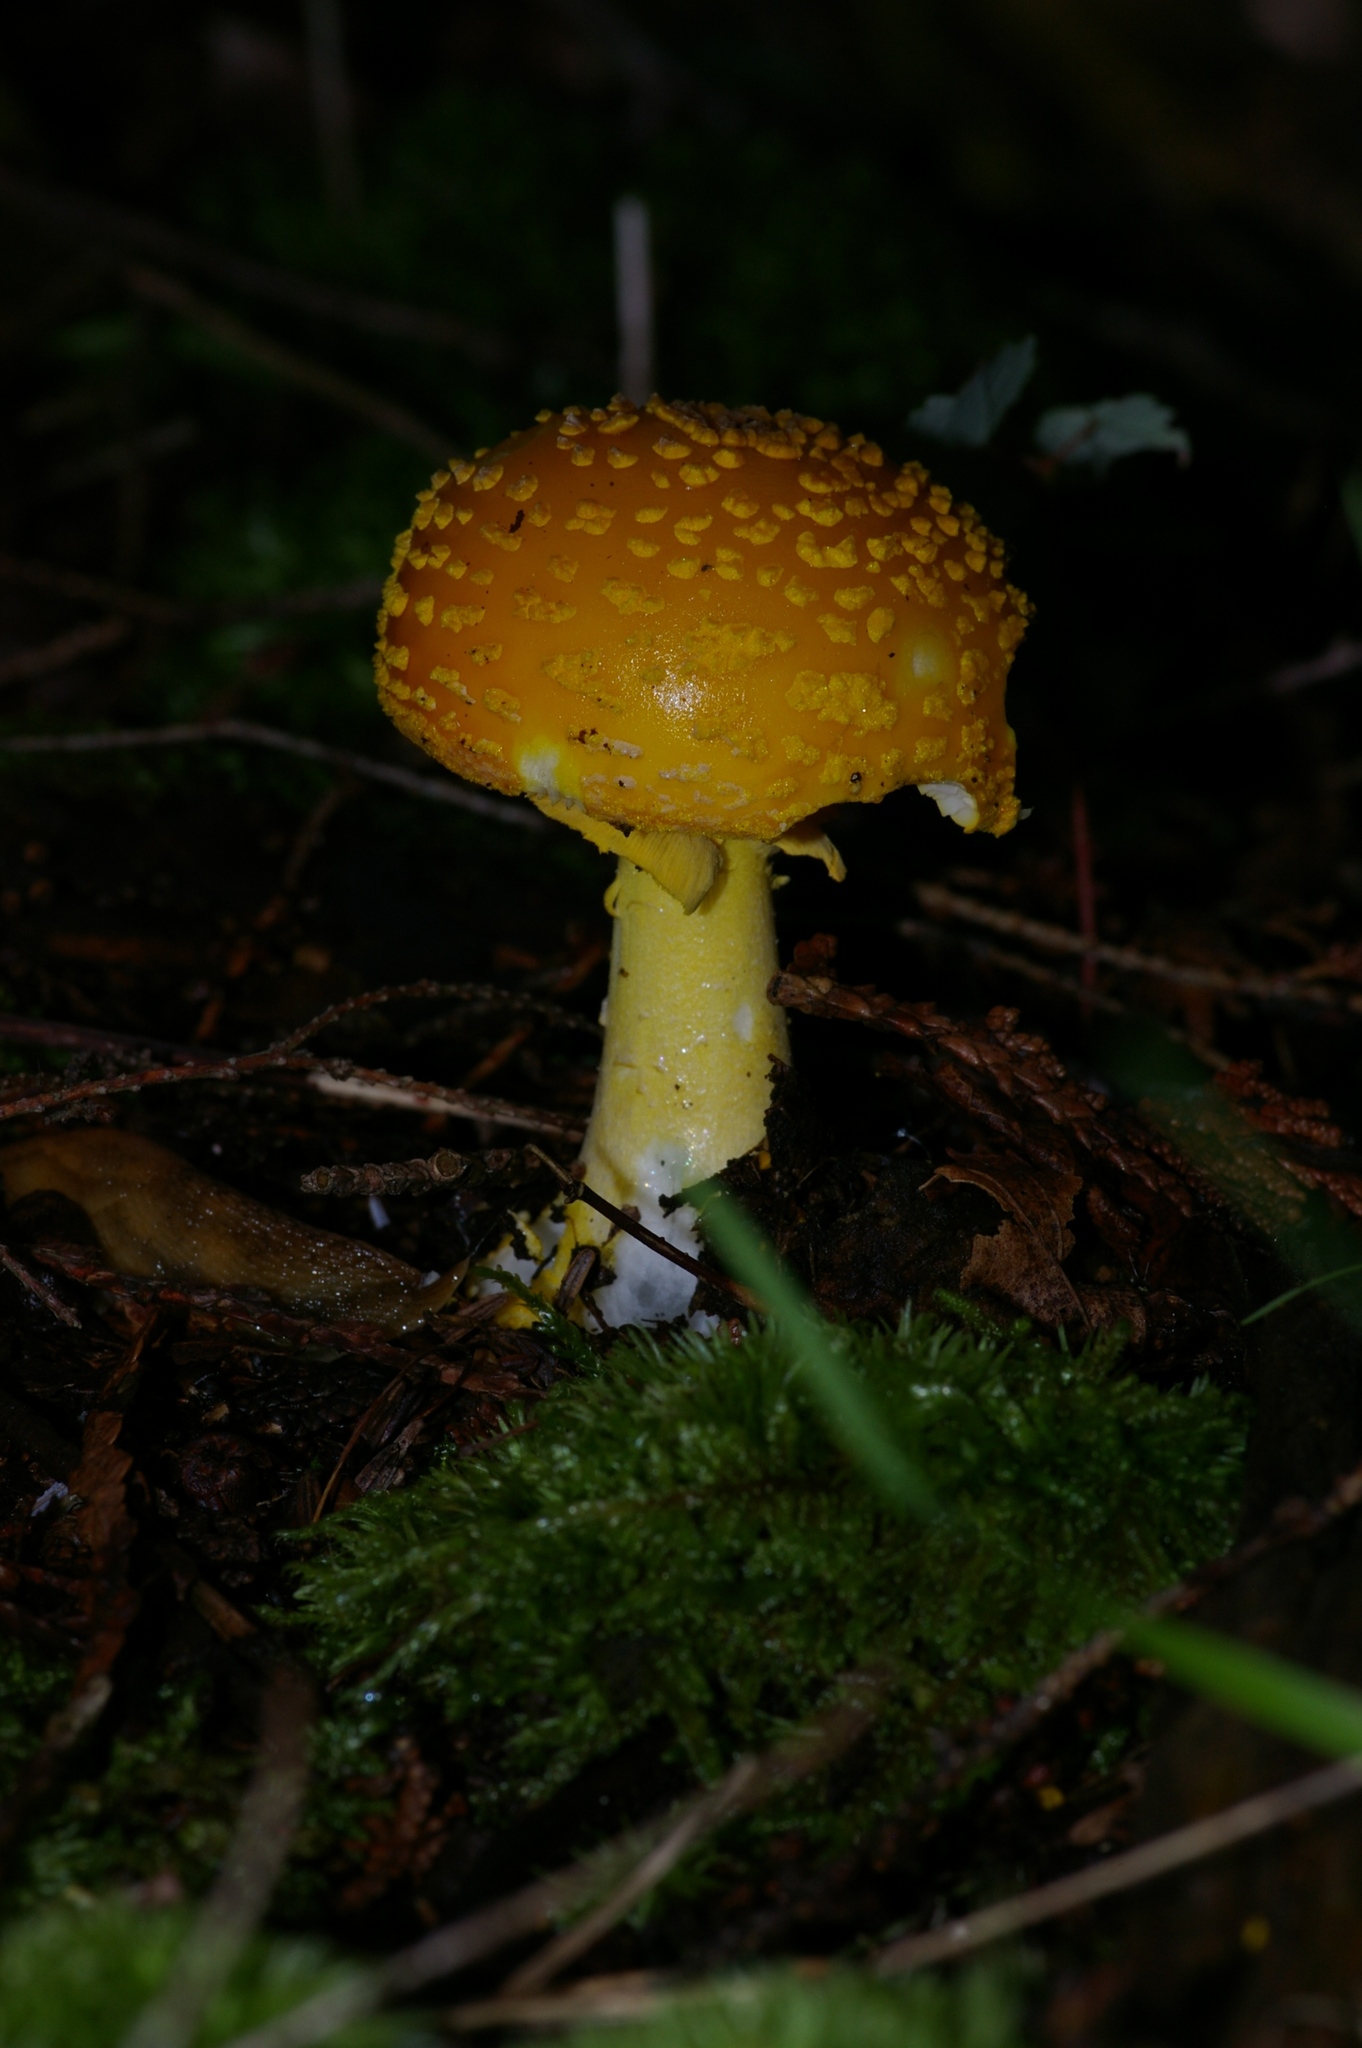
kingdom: Fungi
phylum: Basidiomycota
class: Agaricomycetes
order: Agaricales
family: Amanitaceae
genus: Amanita
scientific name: Amanita flavoconia
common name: Yellow patches
